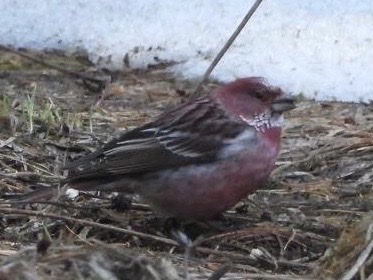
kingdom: Animalia
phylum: Chordata
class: Aves
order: Passeriformes
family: Fringillidae
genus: Carpodacus
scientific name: Carpodacus roseus
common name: Pallas's rosefinch
